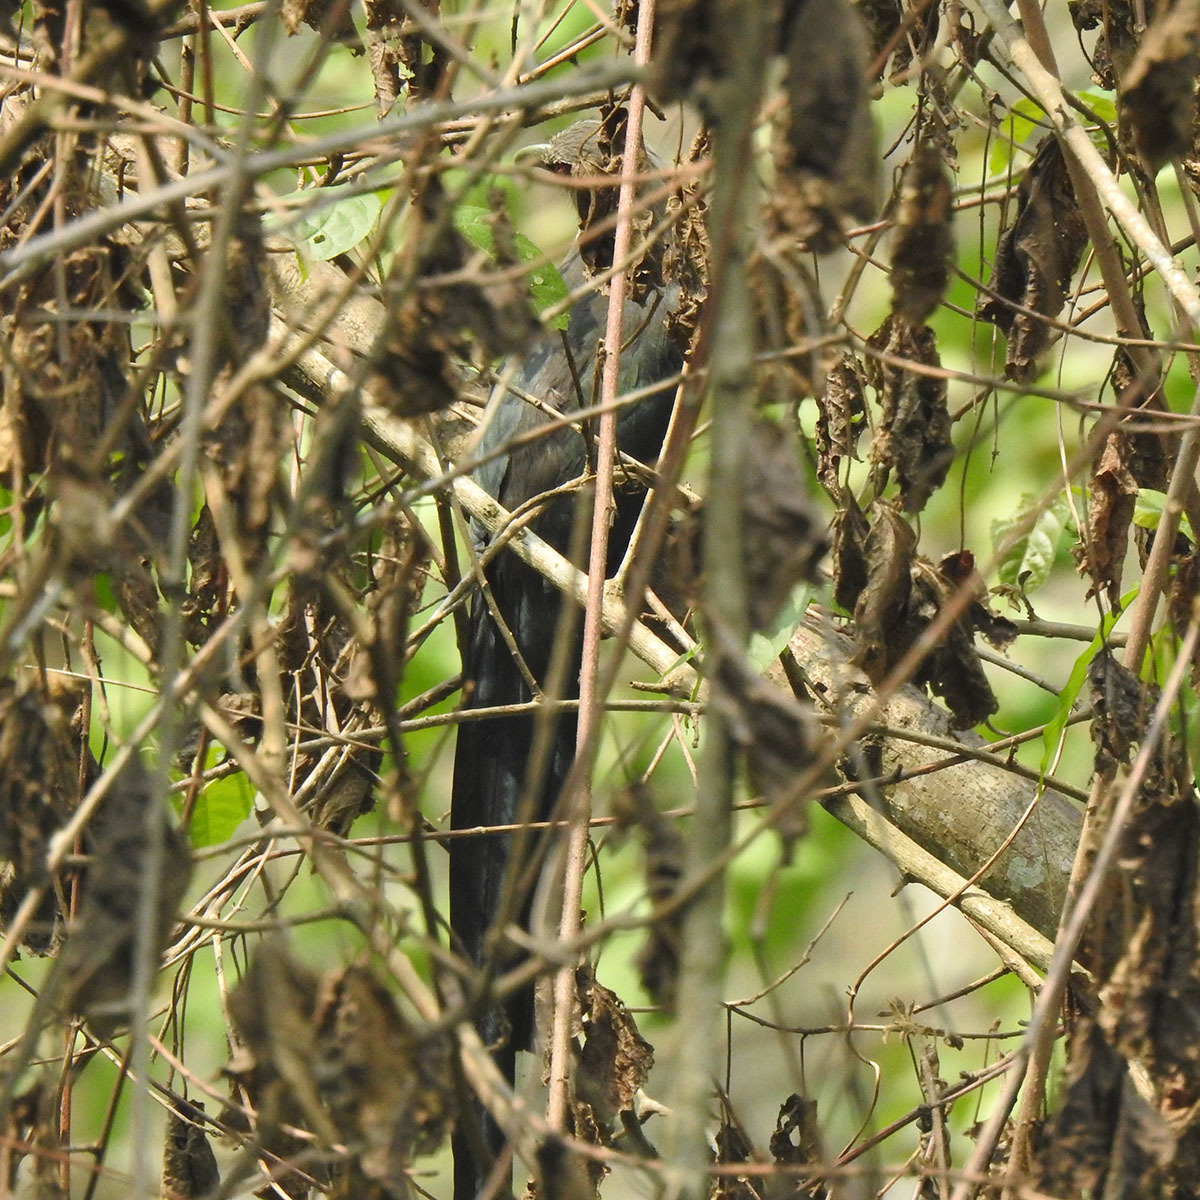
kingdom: Animalia
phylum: Chordata
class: Aves
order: Cuculiformes
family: Cuculidae
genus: Rhopodytes
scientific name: Rhopodytes tristis
